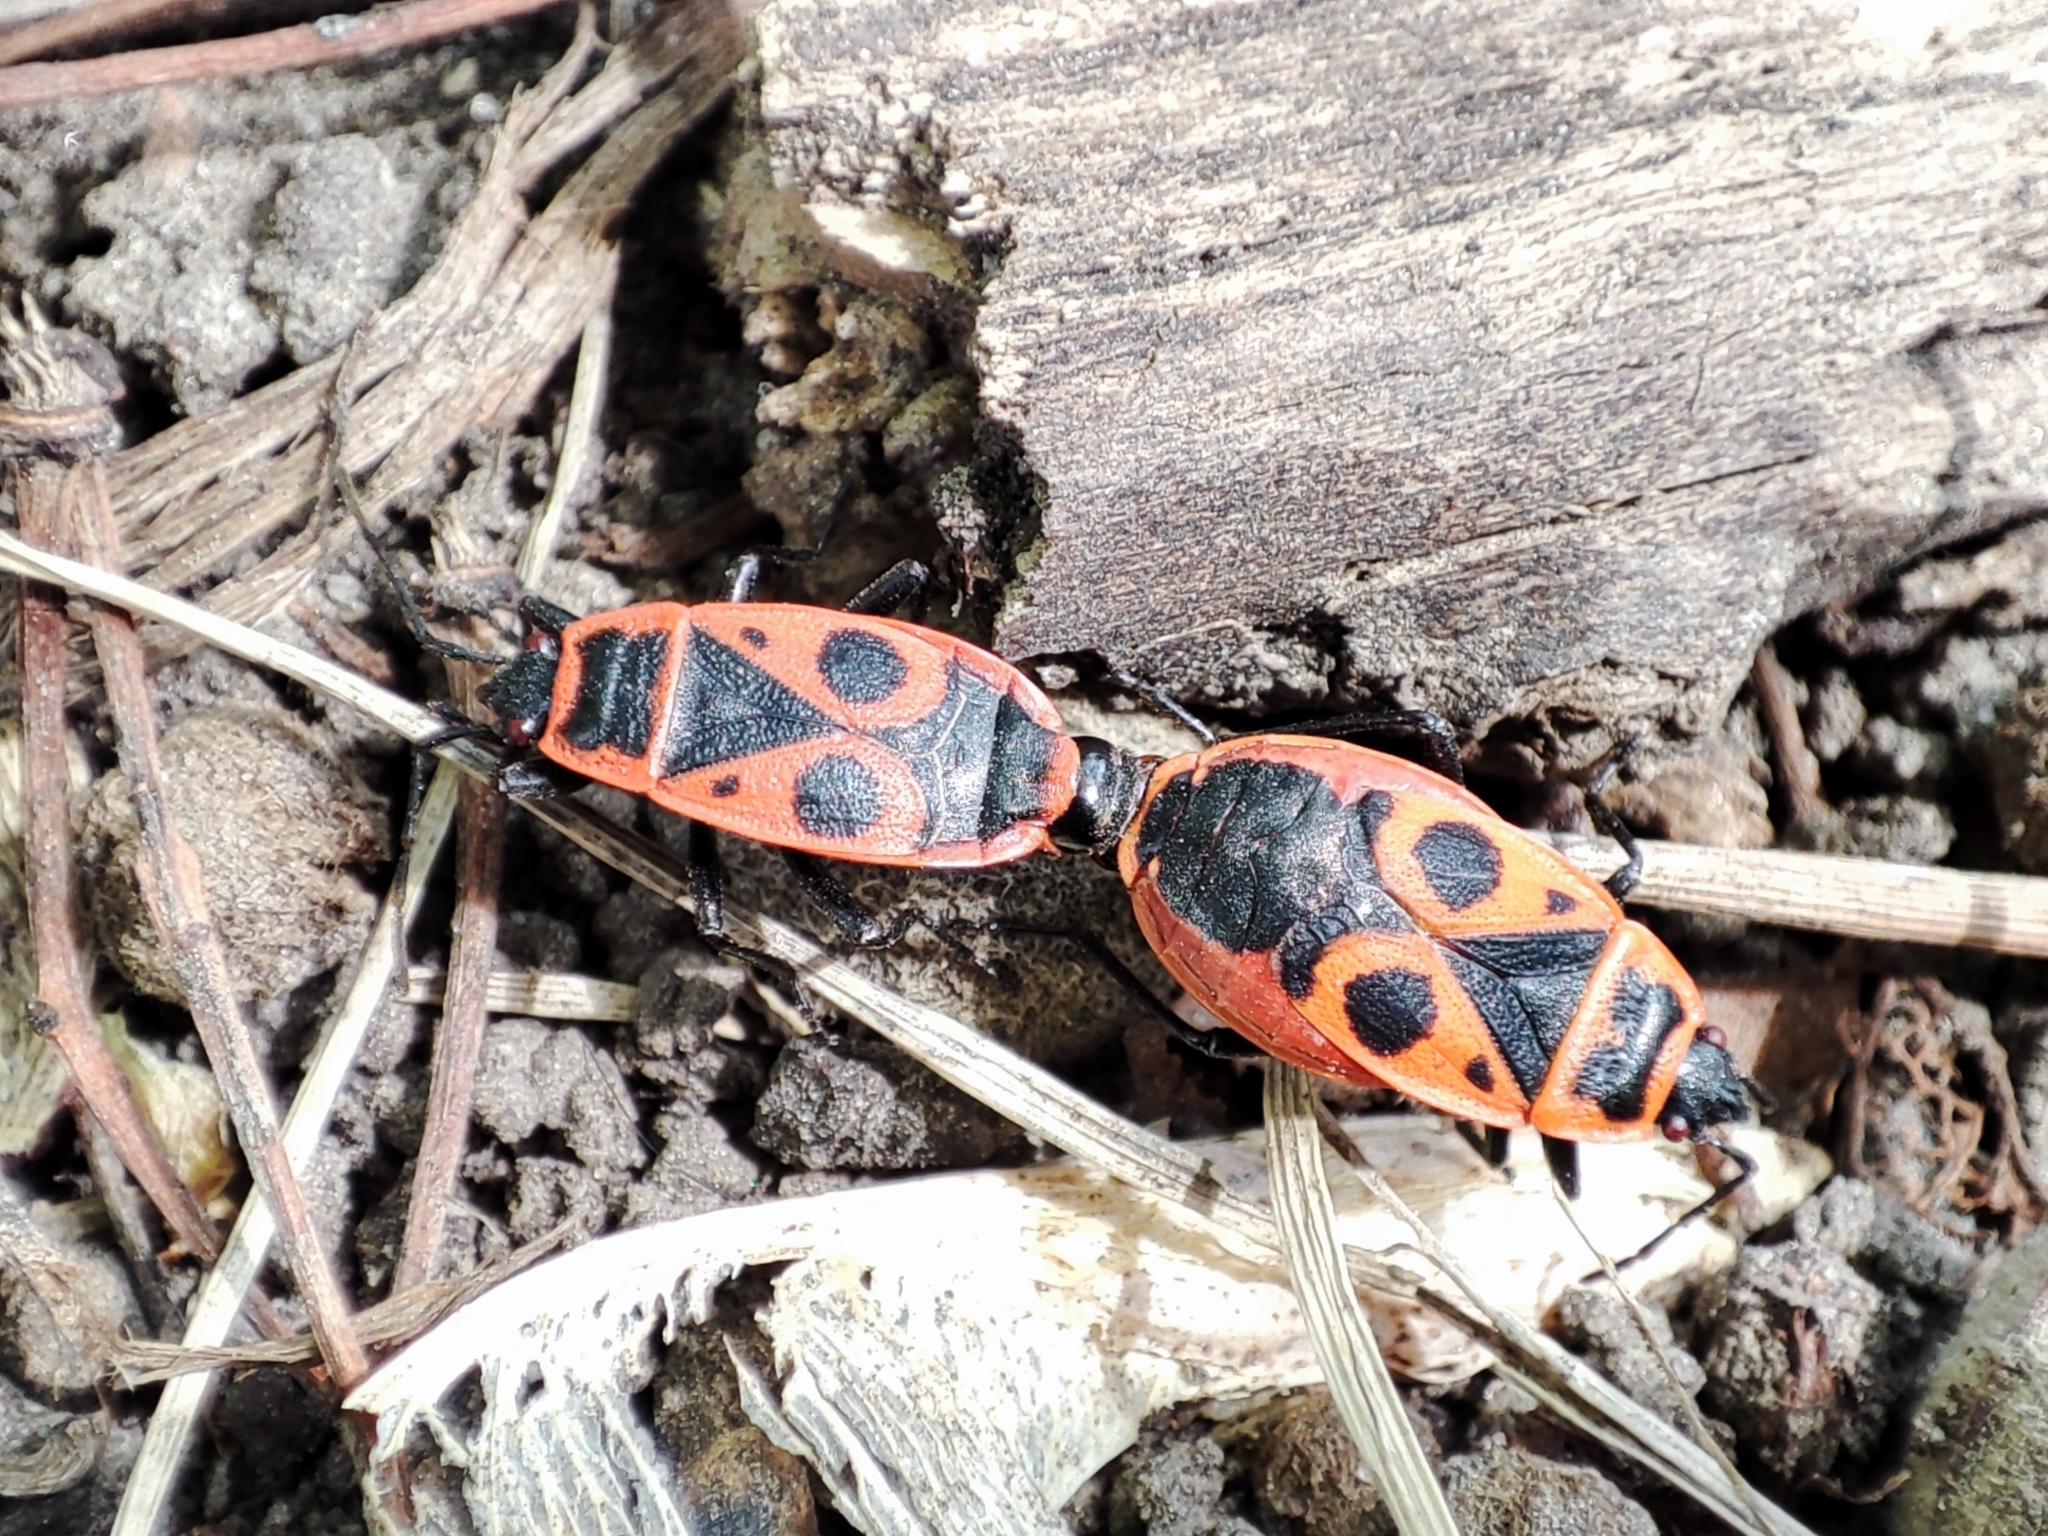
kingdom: Animalia
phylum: Arthropoda
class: Insecta
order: Hemiptera
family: Pyrrhocoridae
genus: Pyrrhocoris
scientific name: Pyrrhocoris apterus
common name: Firebug
